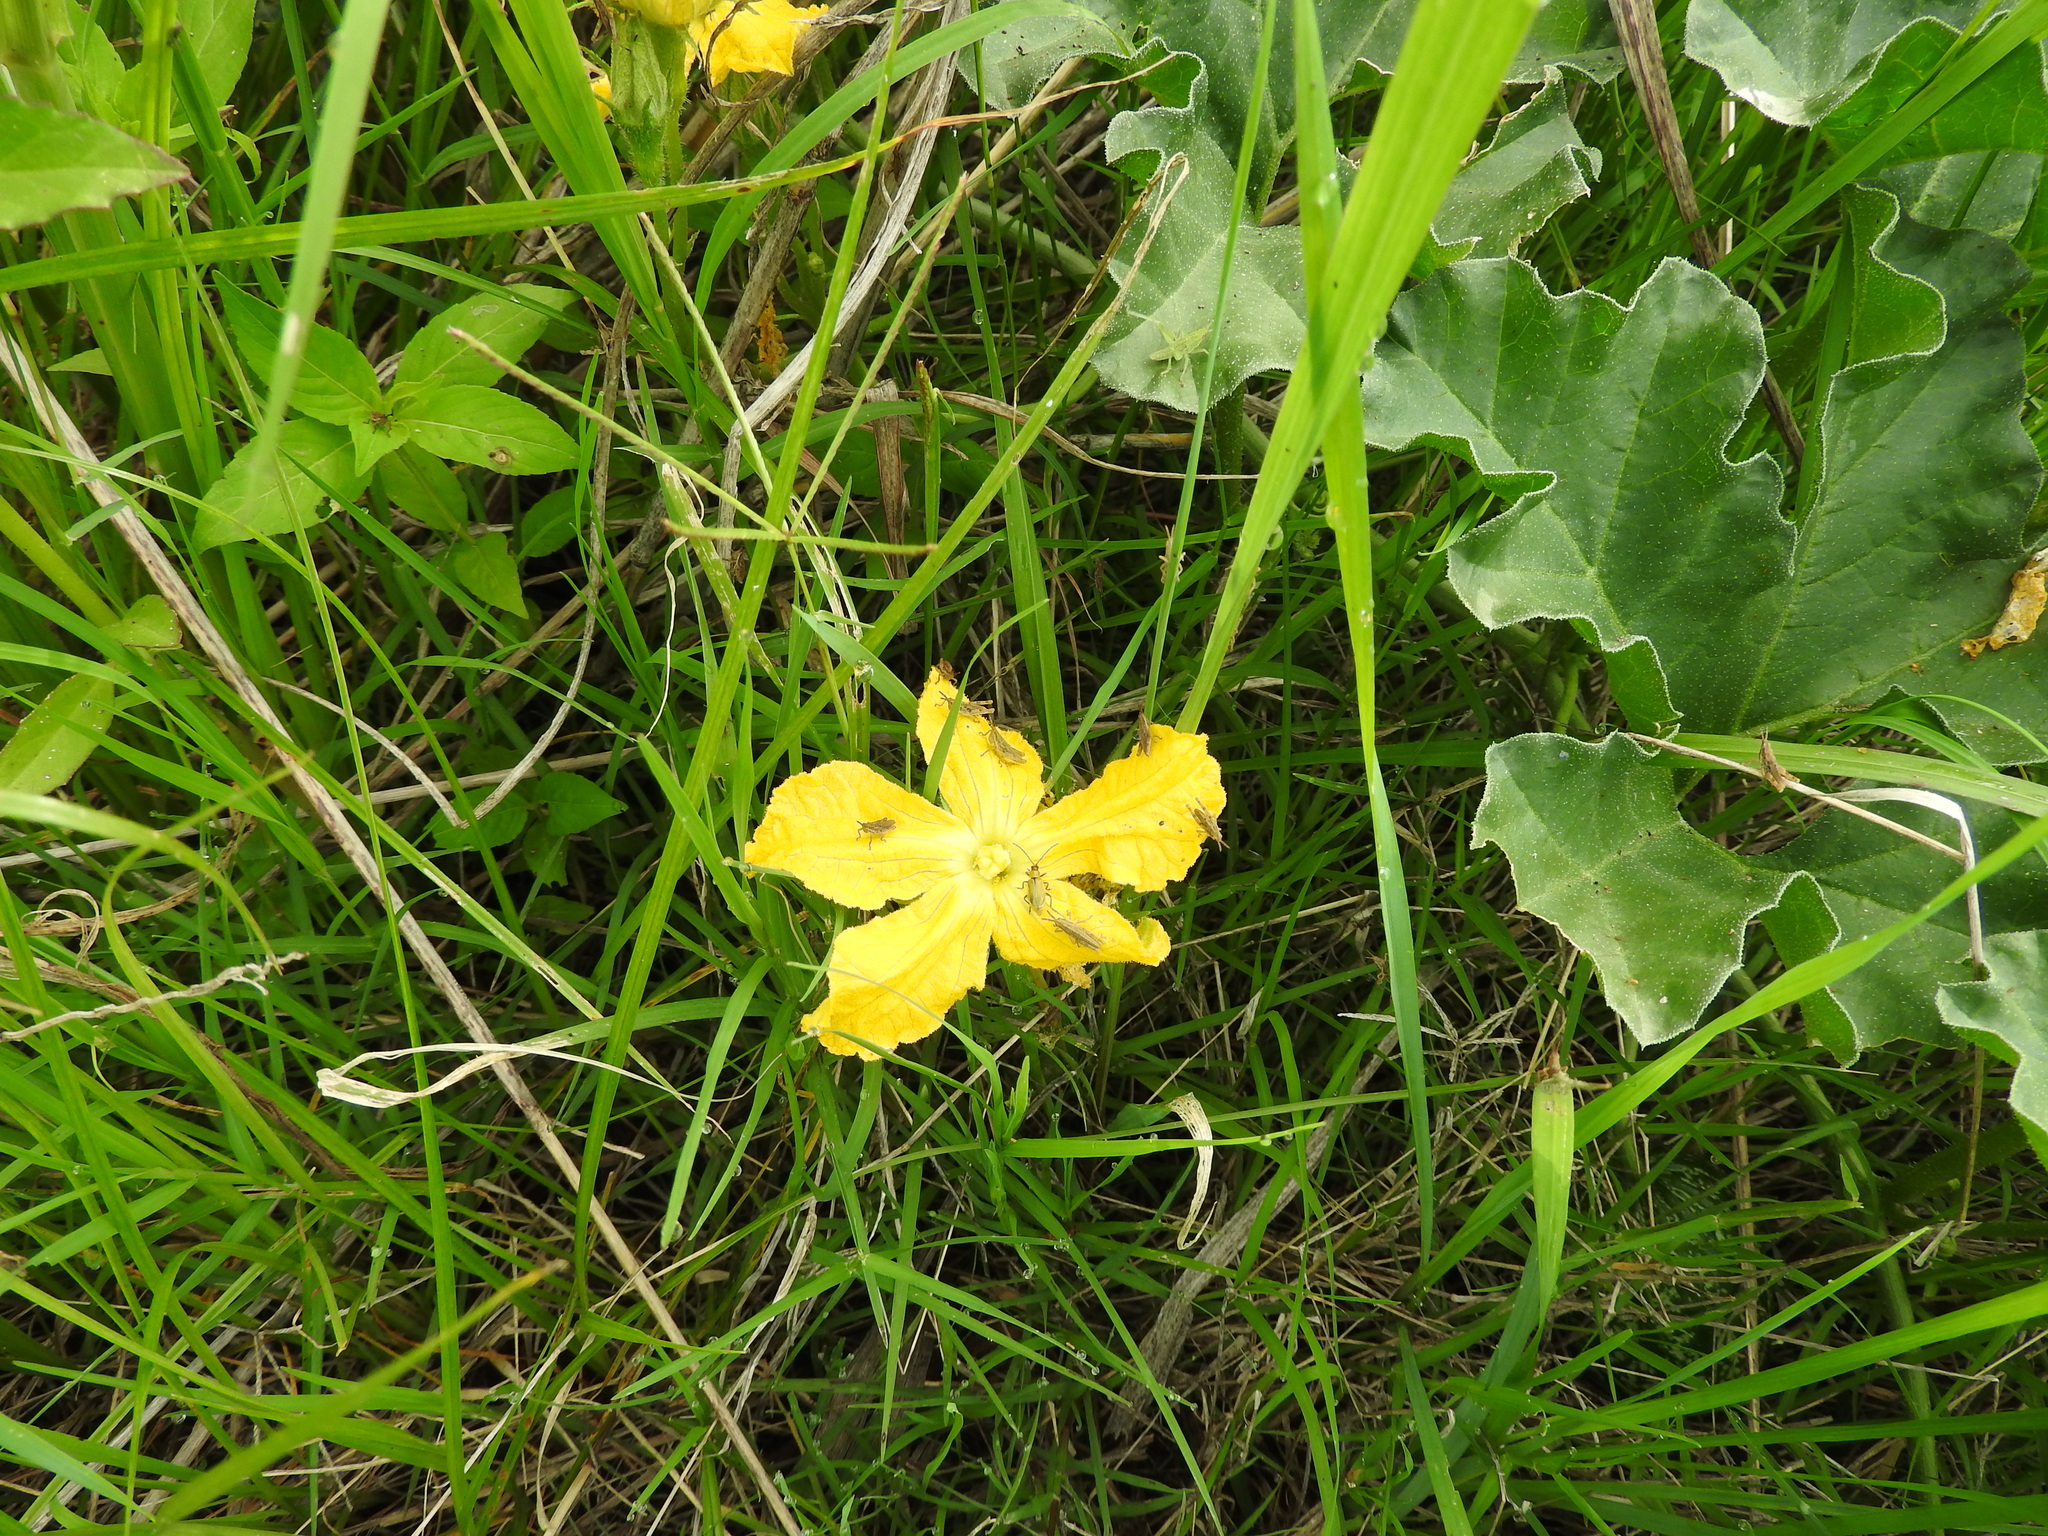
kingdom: Plantae
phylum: Tracheophyta
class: Magnoliopsida
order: Cucurbitales
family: Cucurbitaceae
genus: Apodanthera
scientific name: Apodanthera aspera
